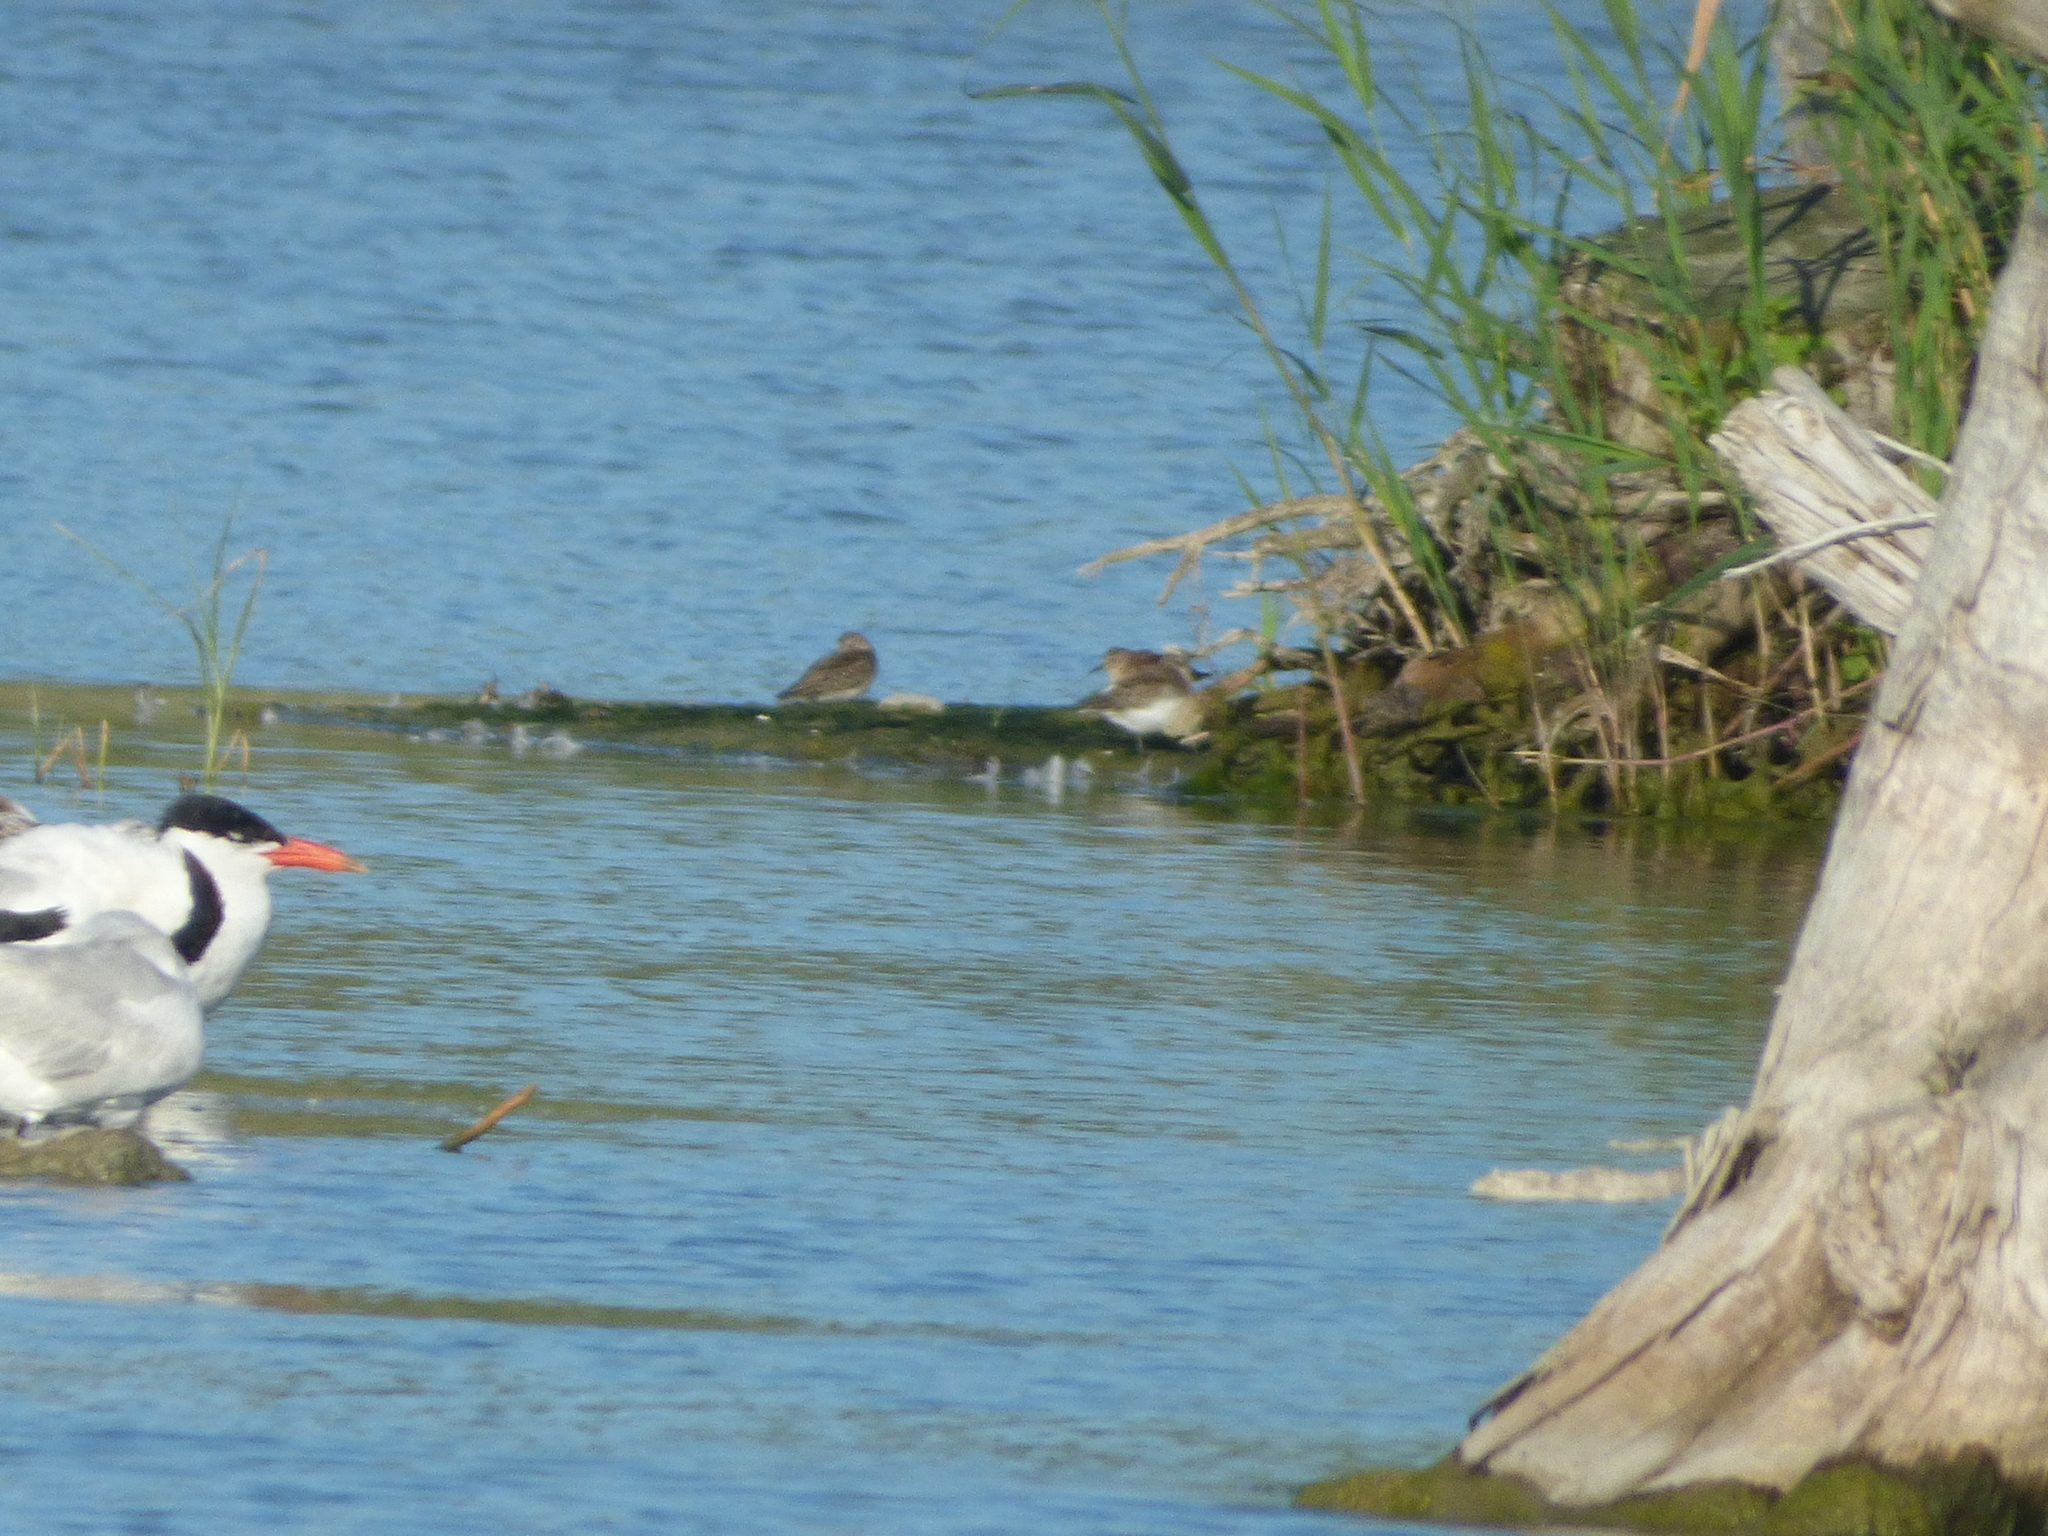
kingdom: Animalia
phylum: Chordata
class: Aves
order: Charadriiformes
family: Scolopacidae
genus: Calidris
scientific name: Calidris pusilla
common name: Semipalmated sandpiper
